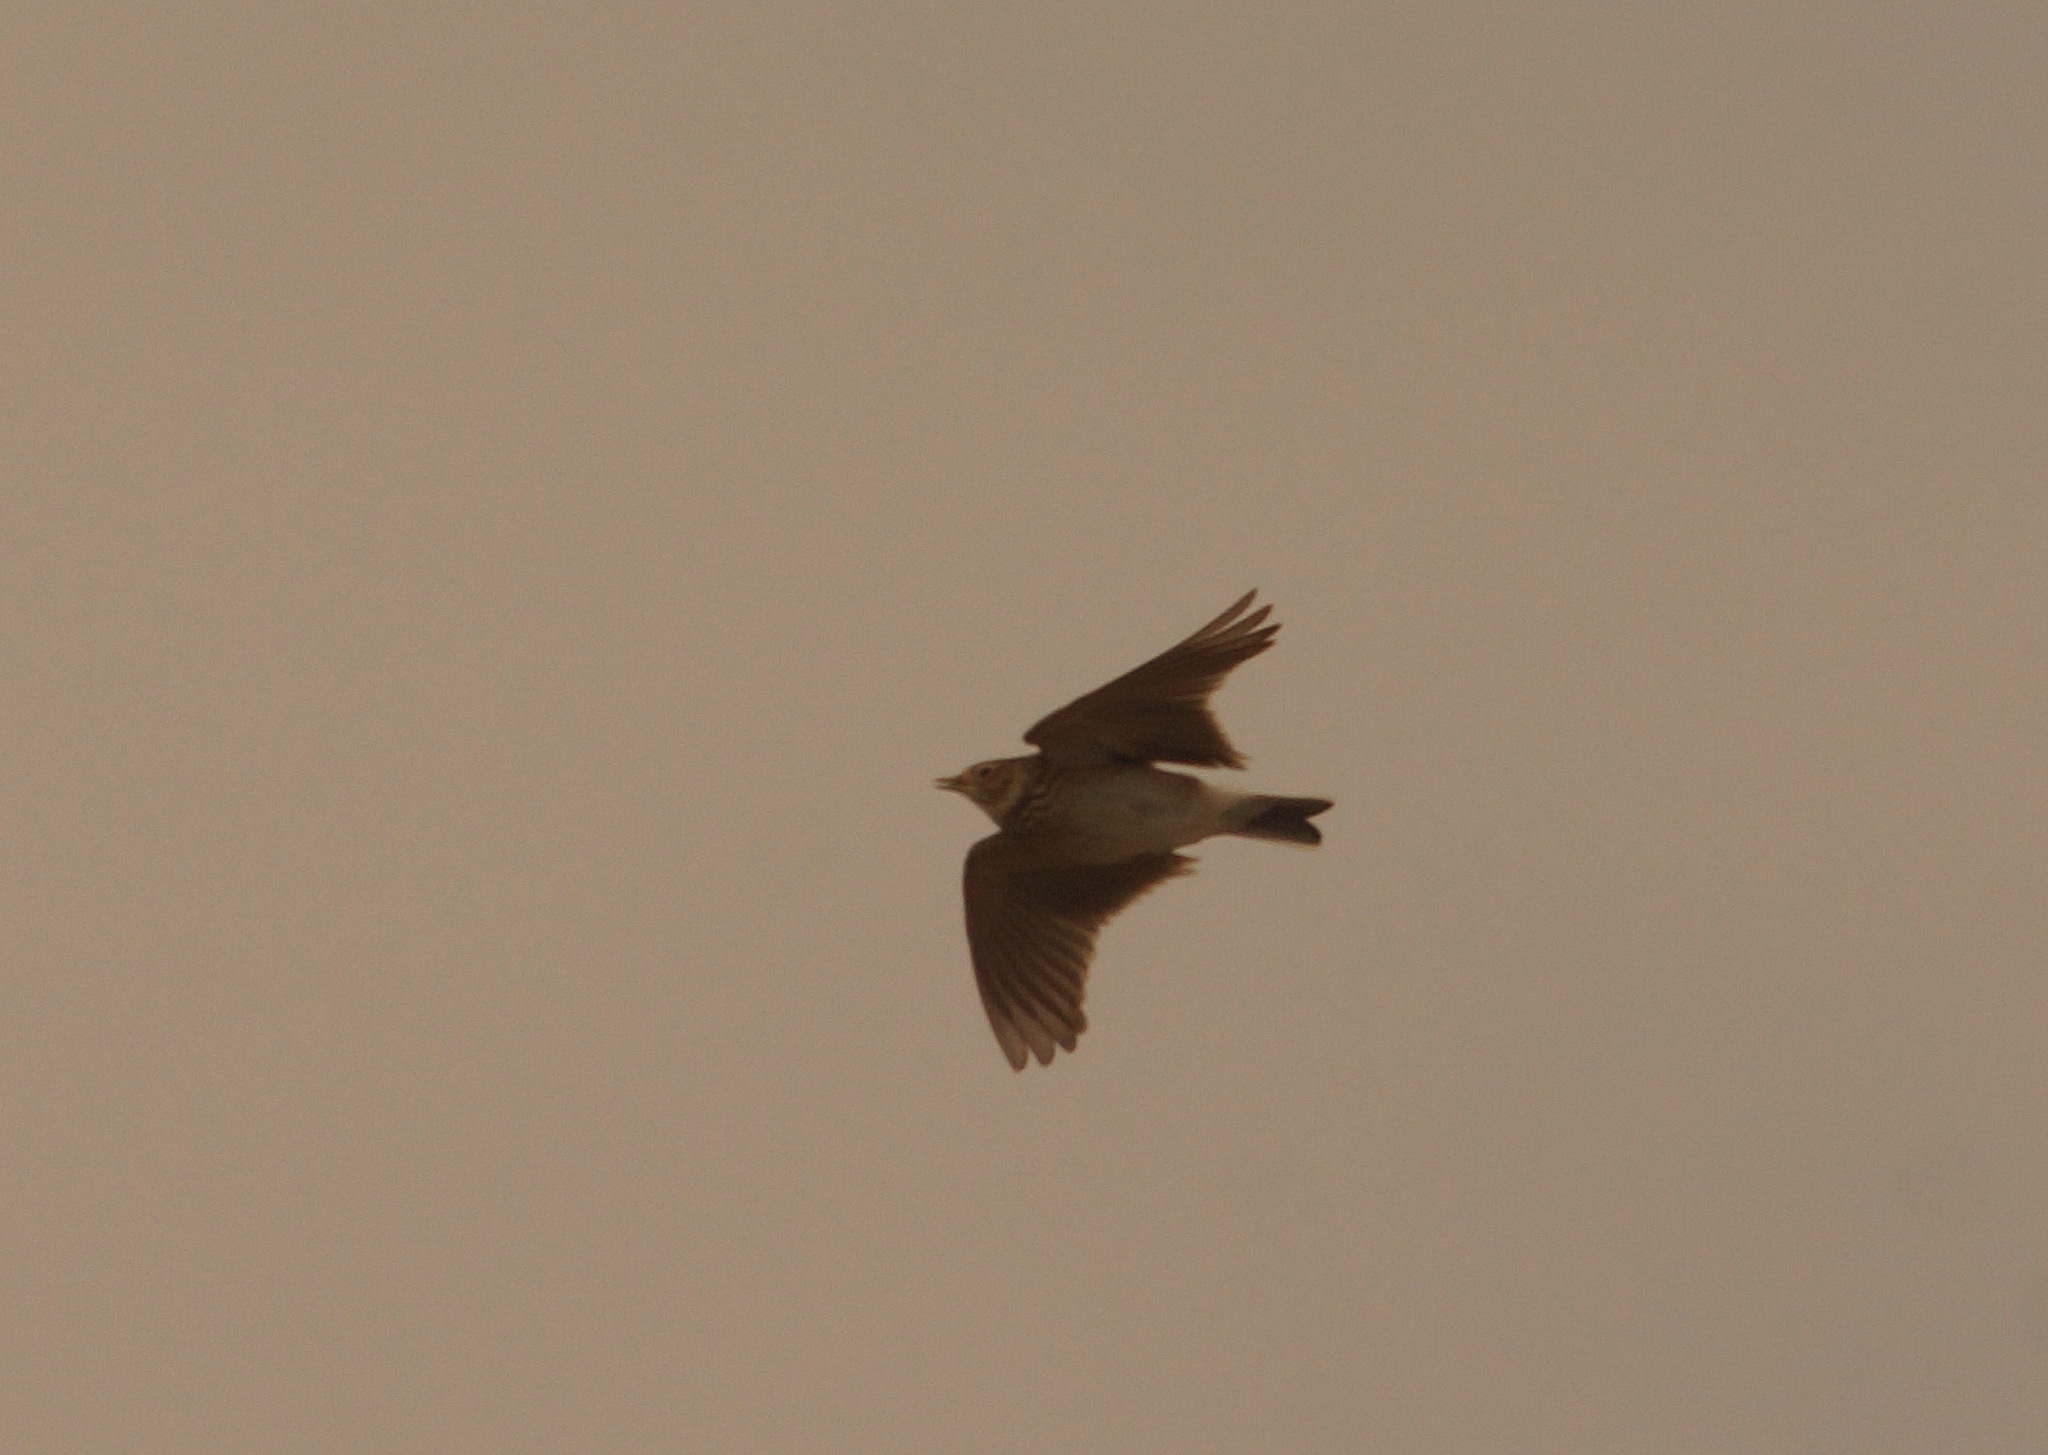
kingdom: Animalia
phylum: Chordata
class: Aves
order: Passeriformes
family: Alaudidae
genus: Alauda
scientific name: Alauda arvensis
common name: Eurasian skylark
